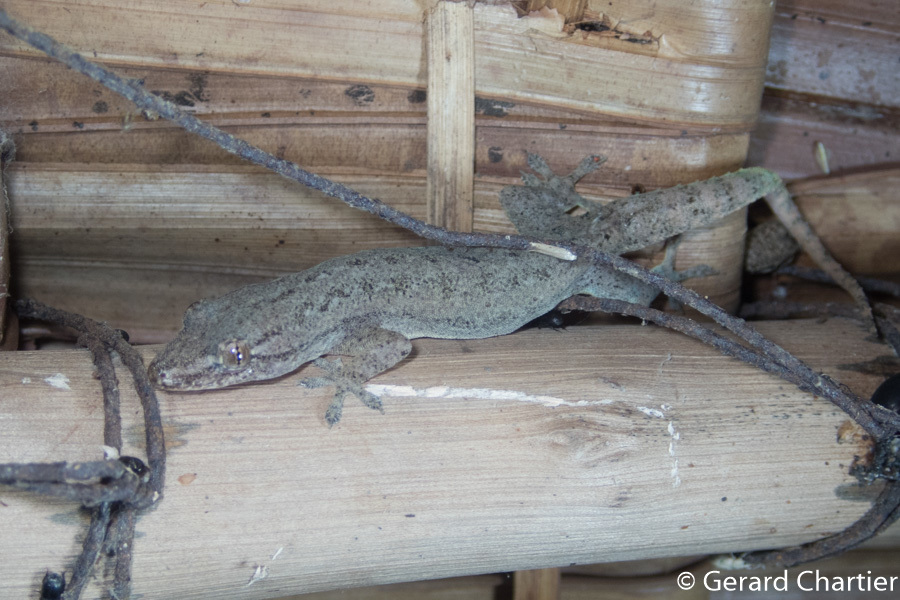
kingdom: Animalia
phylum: Chordata
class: Squamata
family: Gekkonidae
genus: Hemidactylus
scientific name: Hemidactylus frenatus
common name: Common house gecko
